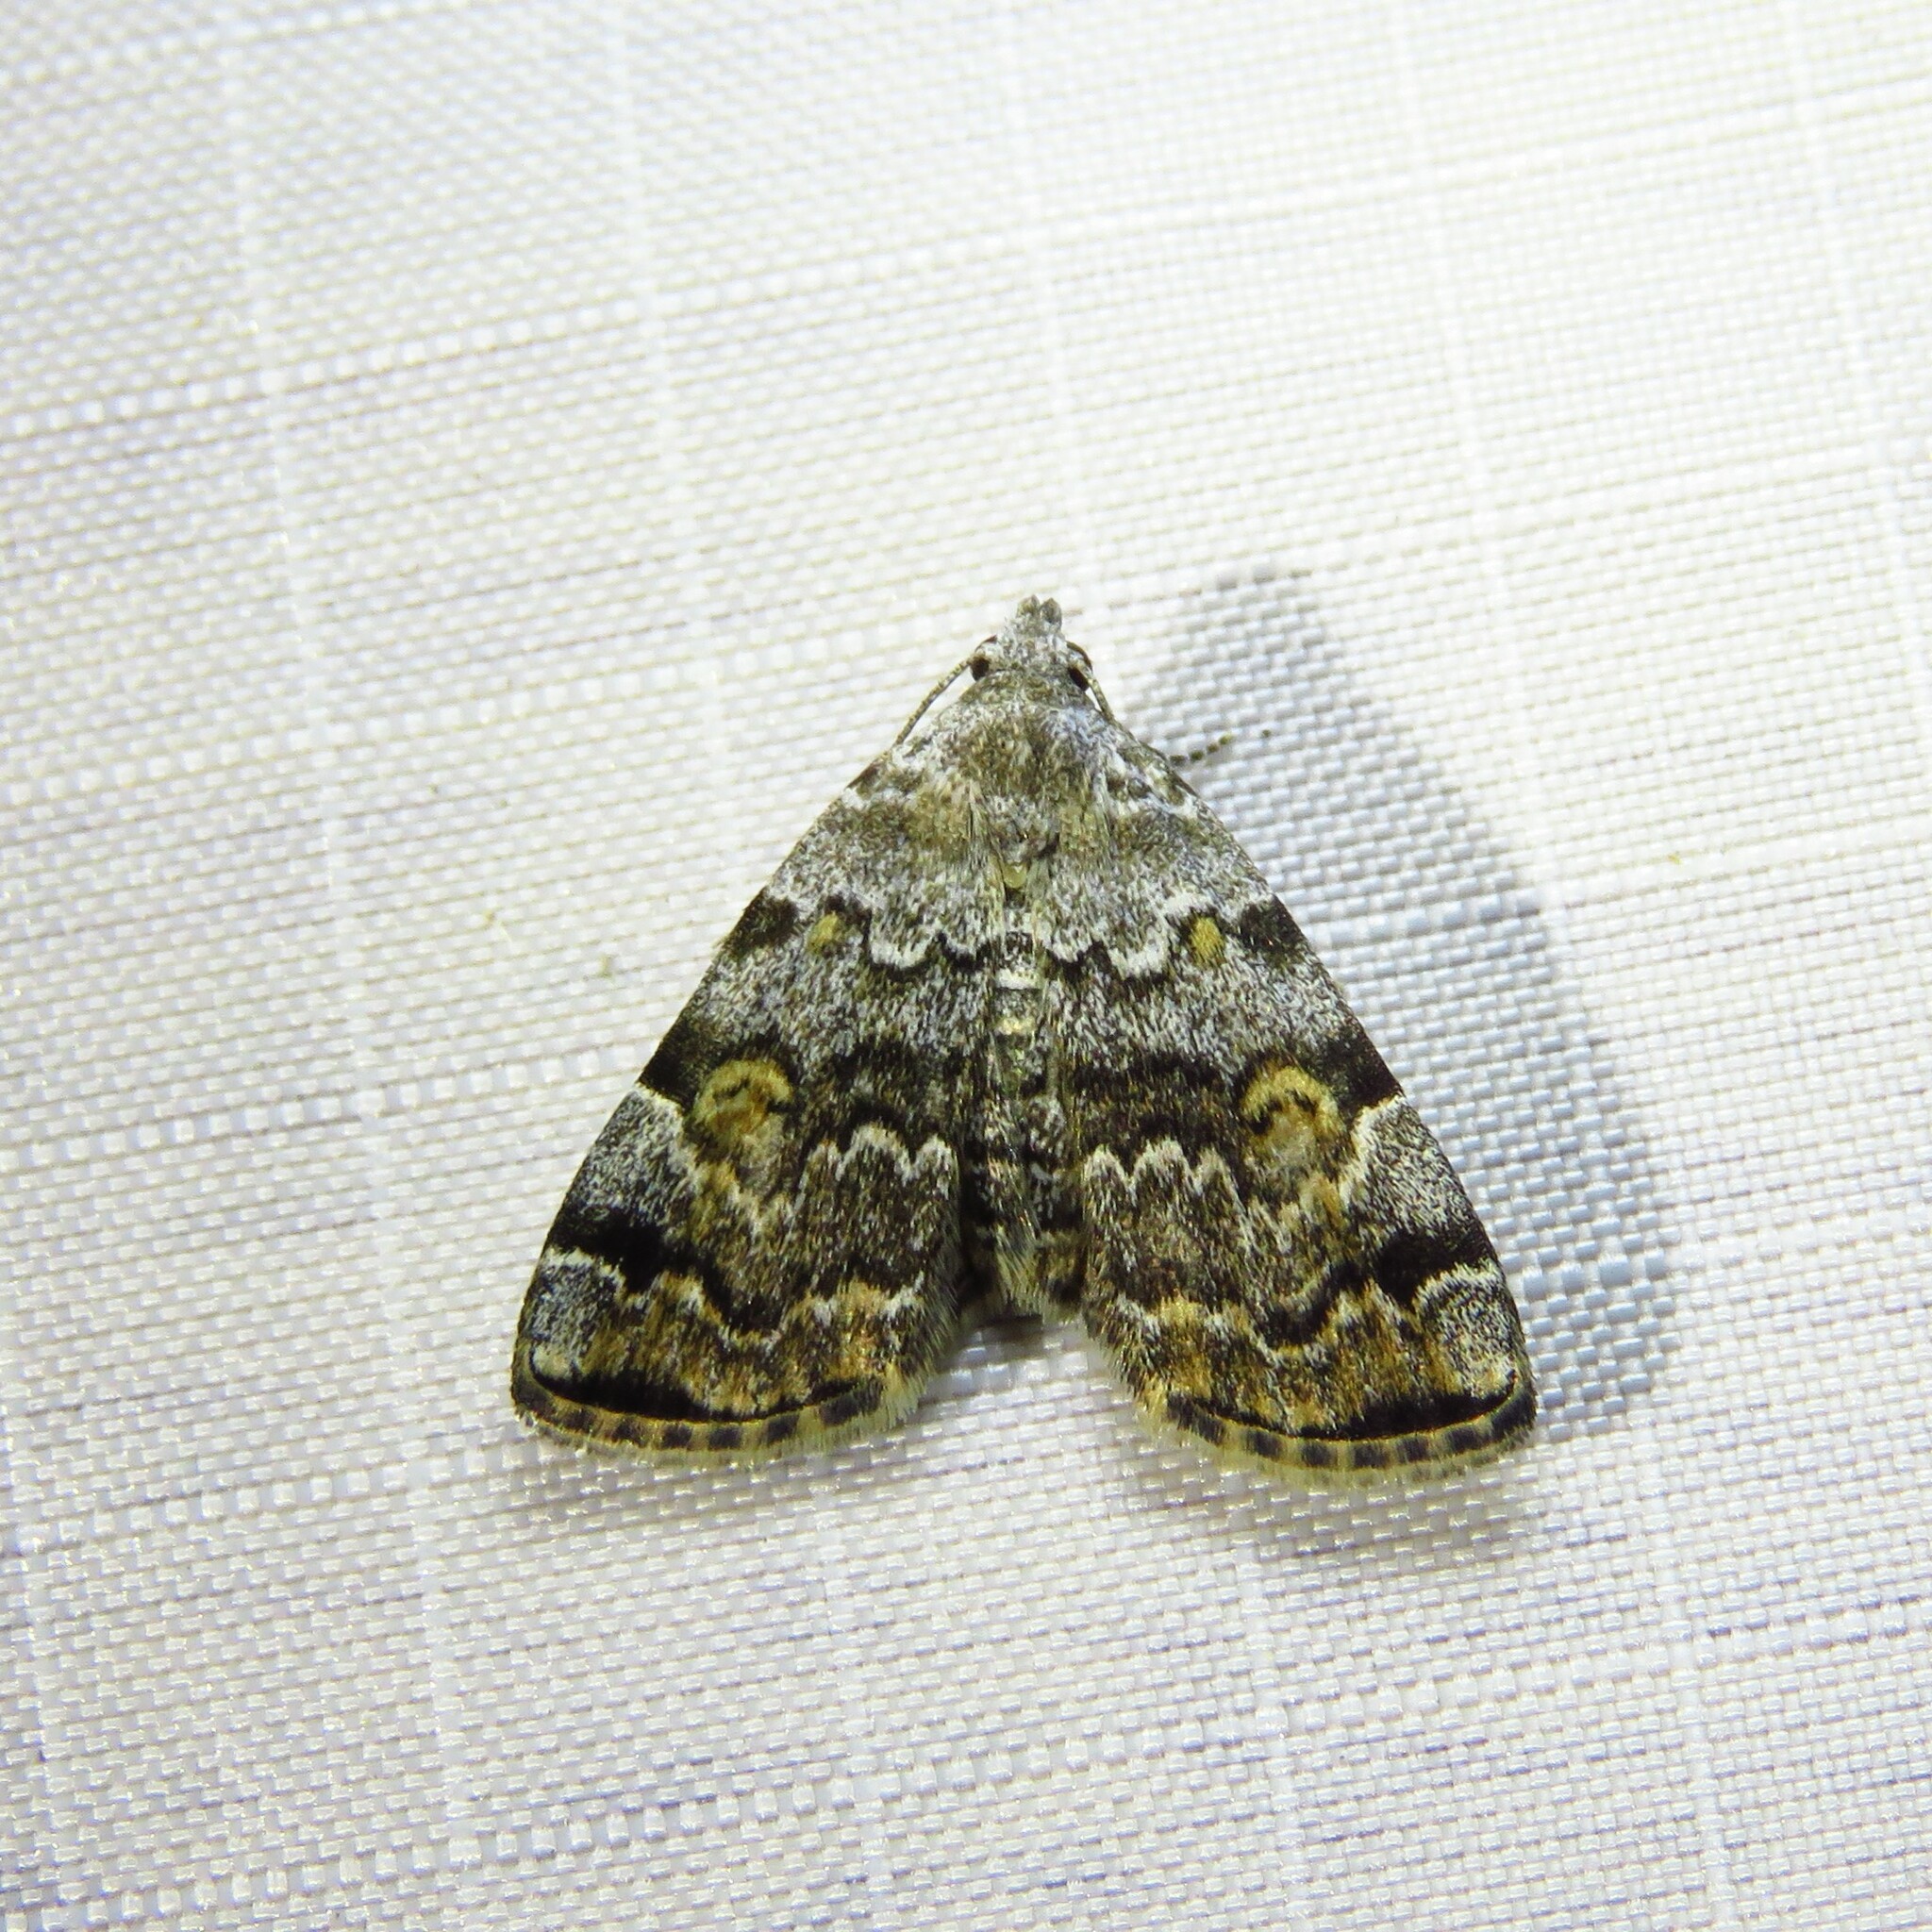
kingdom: Animalia
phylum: Arthropoda
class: Insecta
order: Lepidoptera
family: Erebidae
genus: Idia
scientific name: Idia americalis
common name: American idia moth
